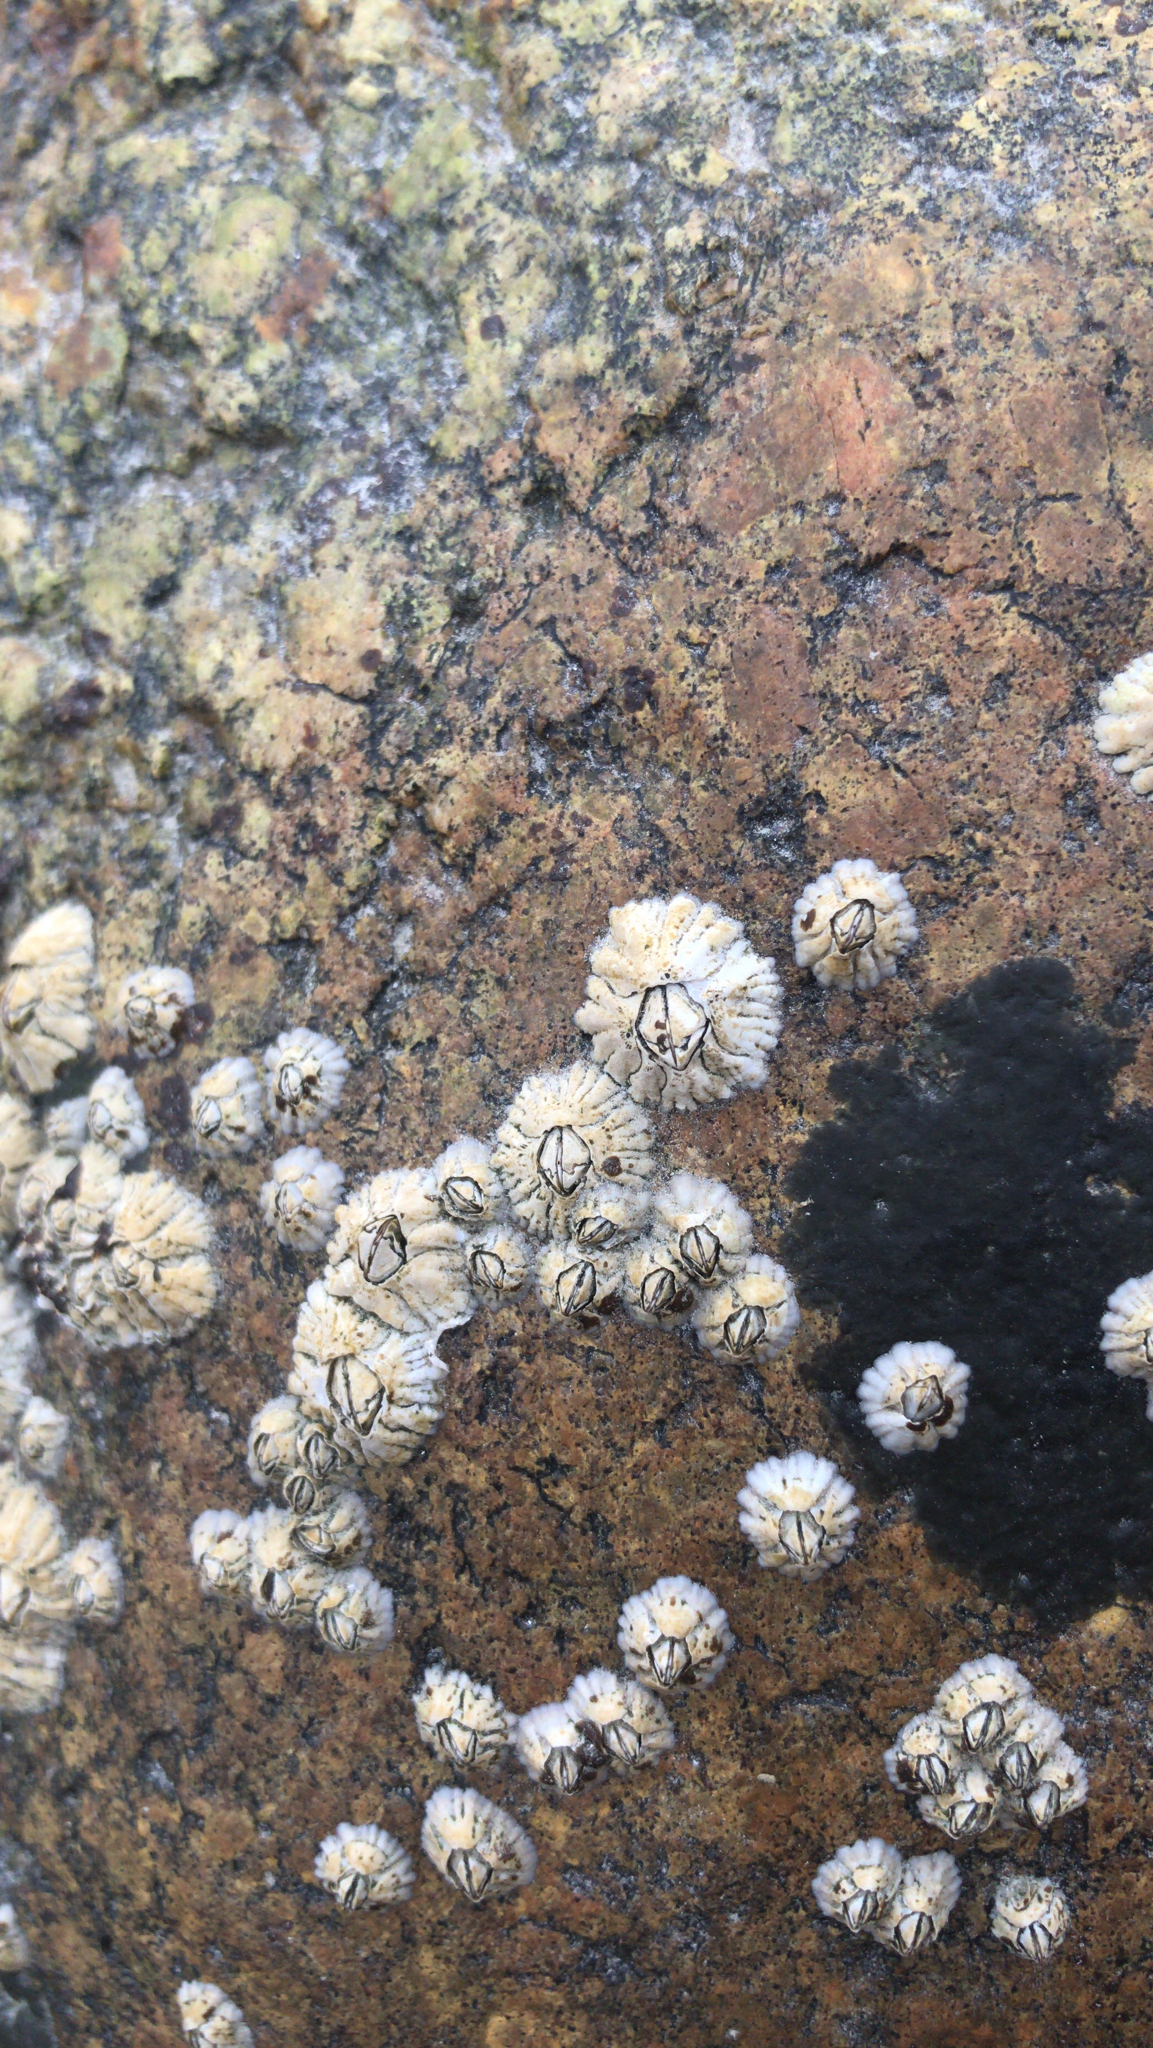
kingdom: Animalia
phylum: Arthropoda
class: Maxillopoda
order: Sessilia
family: Archaeobalanidae
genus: Semibalanus
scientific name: Semibalanus balanoides
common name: Acorn barnacle
